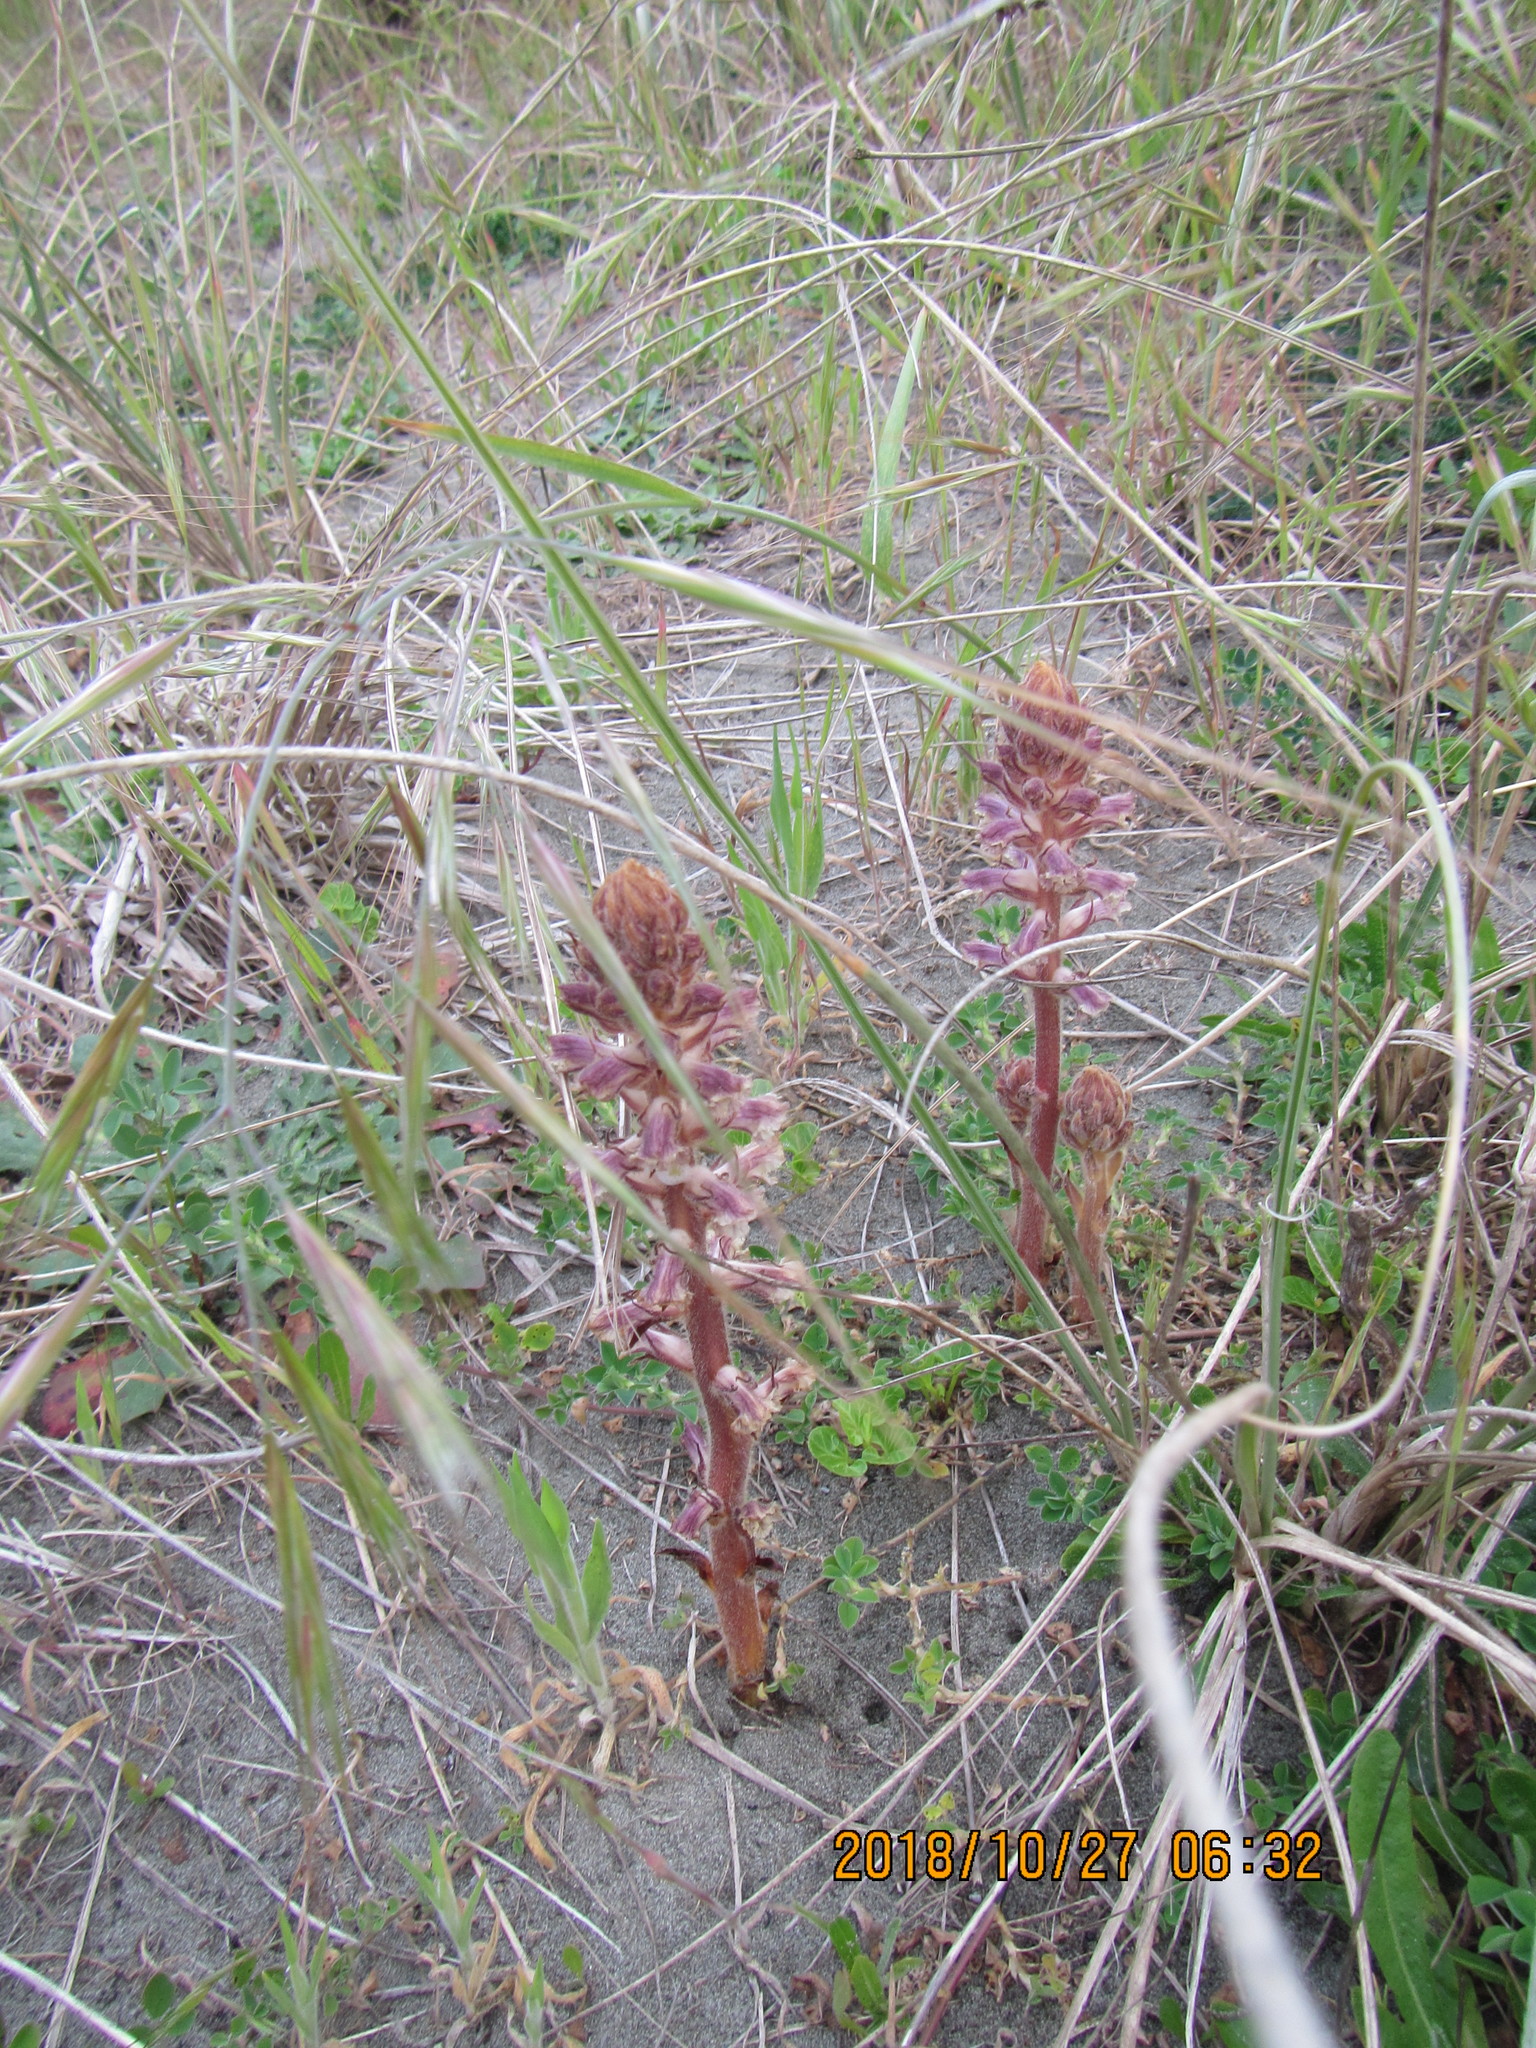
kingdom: Plantae
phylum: Tracheophyta
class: Magnoliopsida
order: Lamiales
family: Orobanchaceae
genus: Orobanche
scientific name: Orobanche minor
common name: Common broomrape
